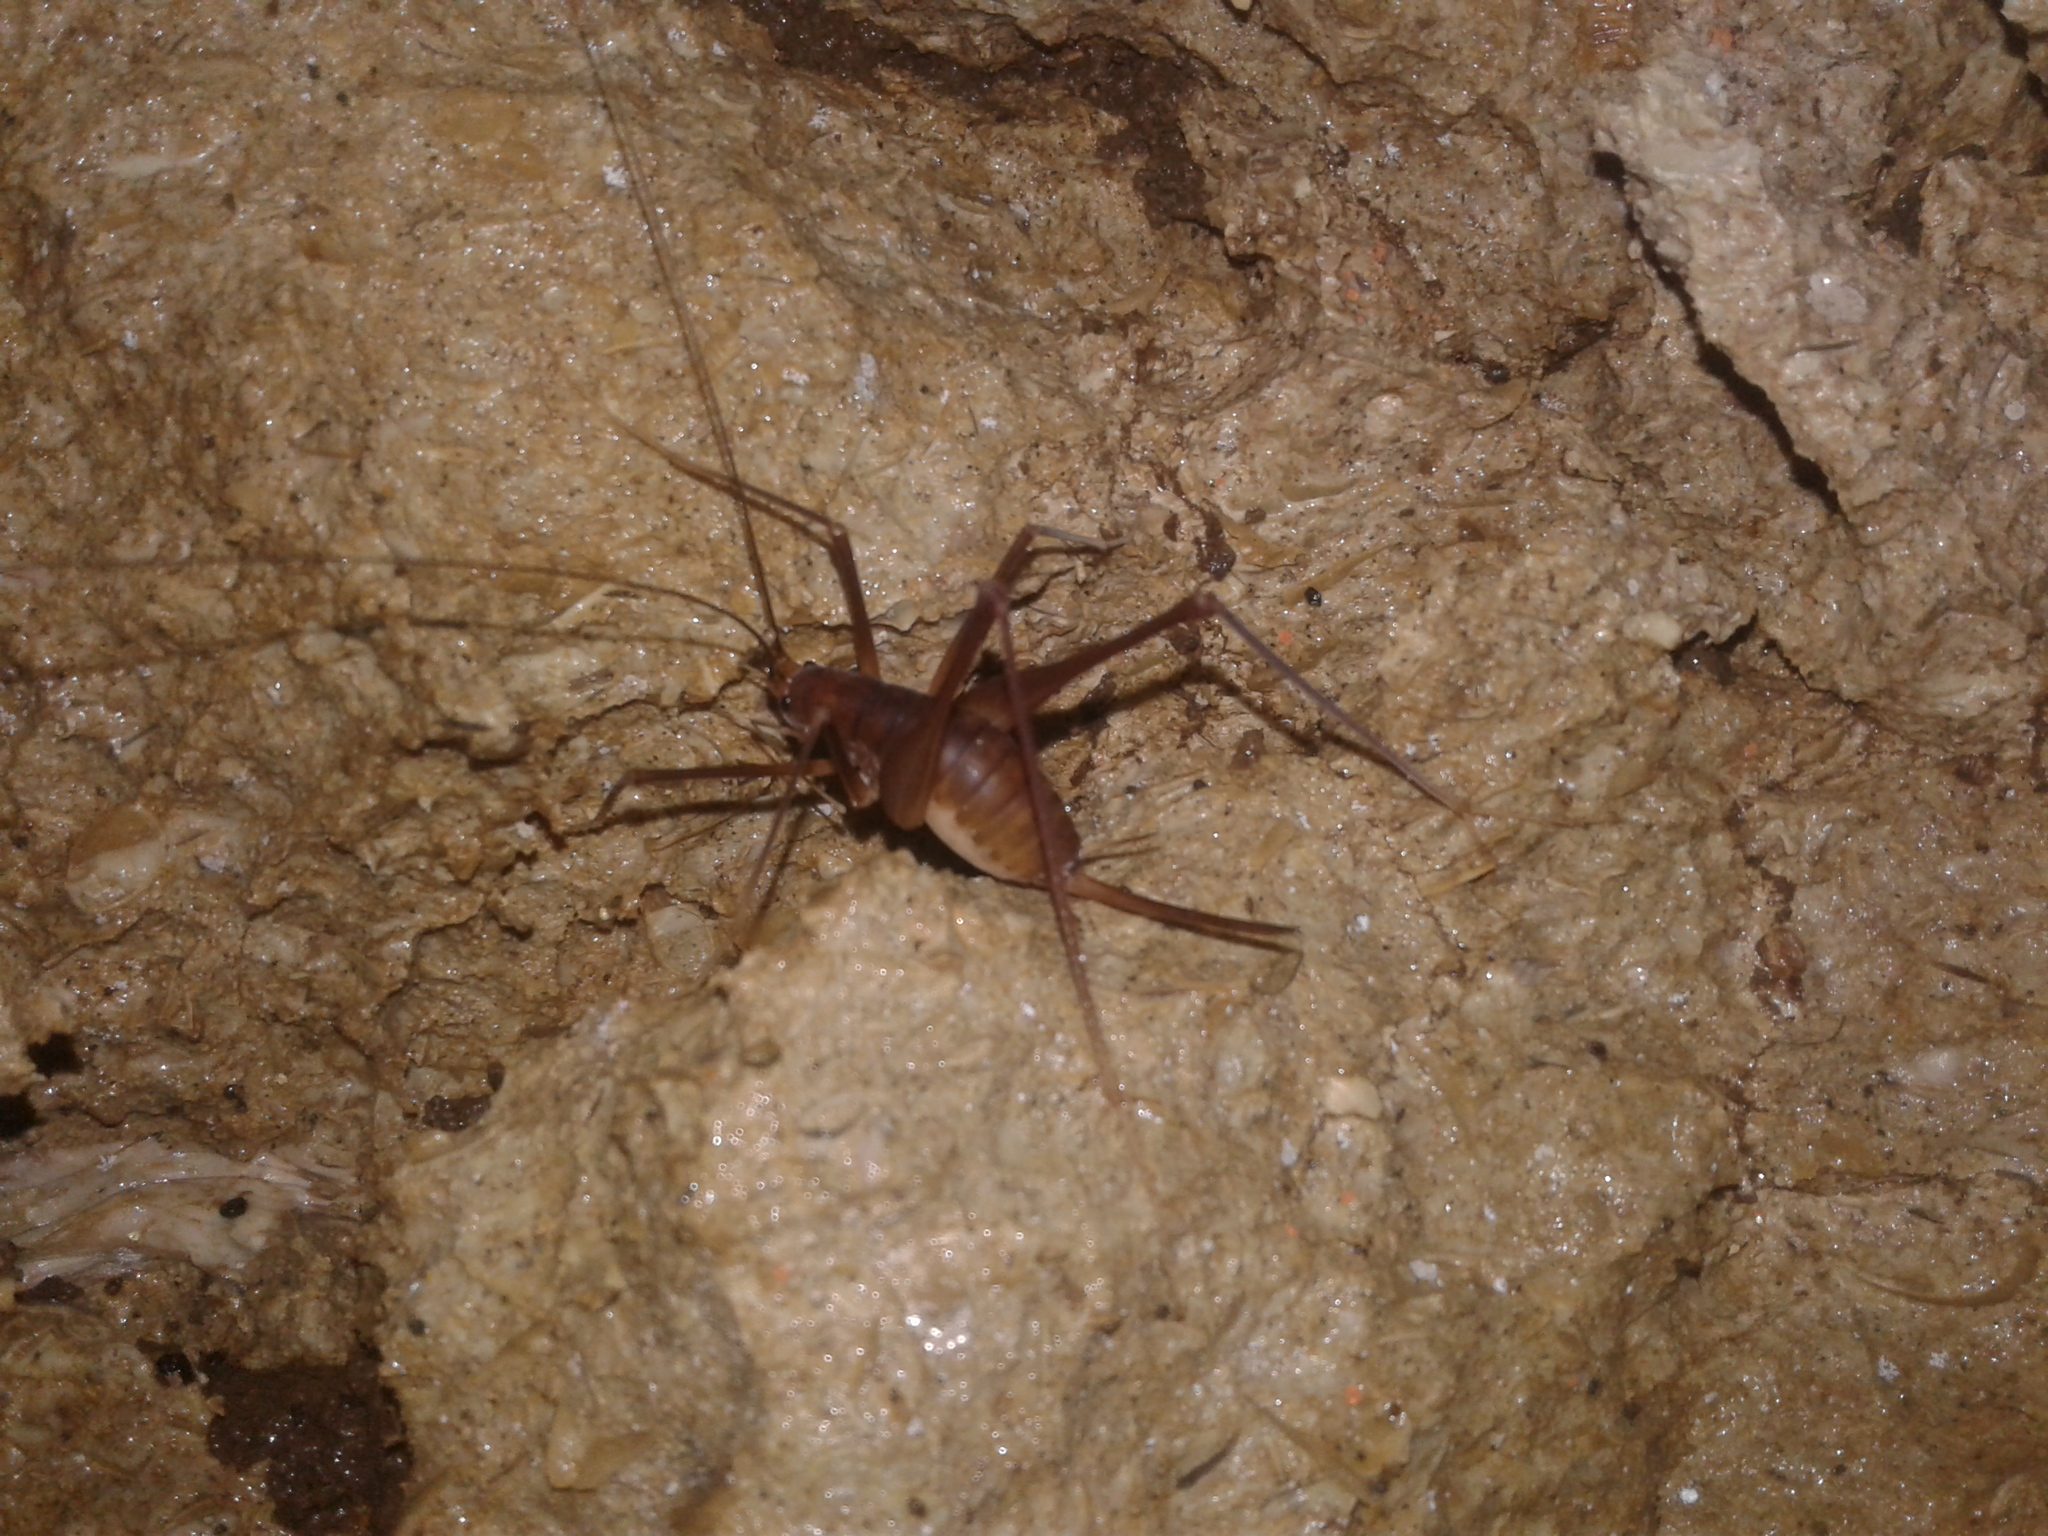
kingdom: Animalia
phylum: Arthropoda
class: Insecta
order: Orthoptera
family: Rhaphidophoridae
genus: Pachyrhamma
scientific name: Pachyrhamma delli
